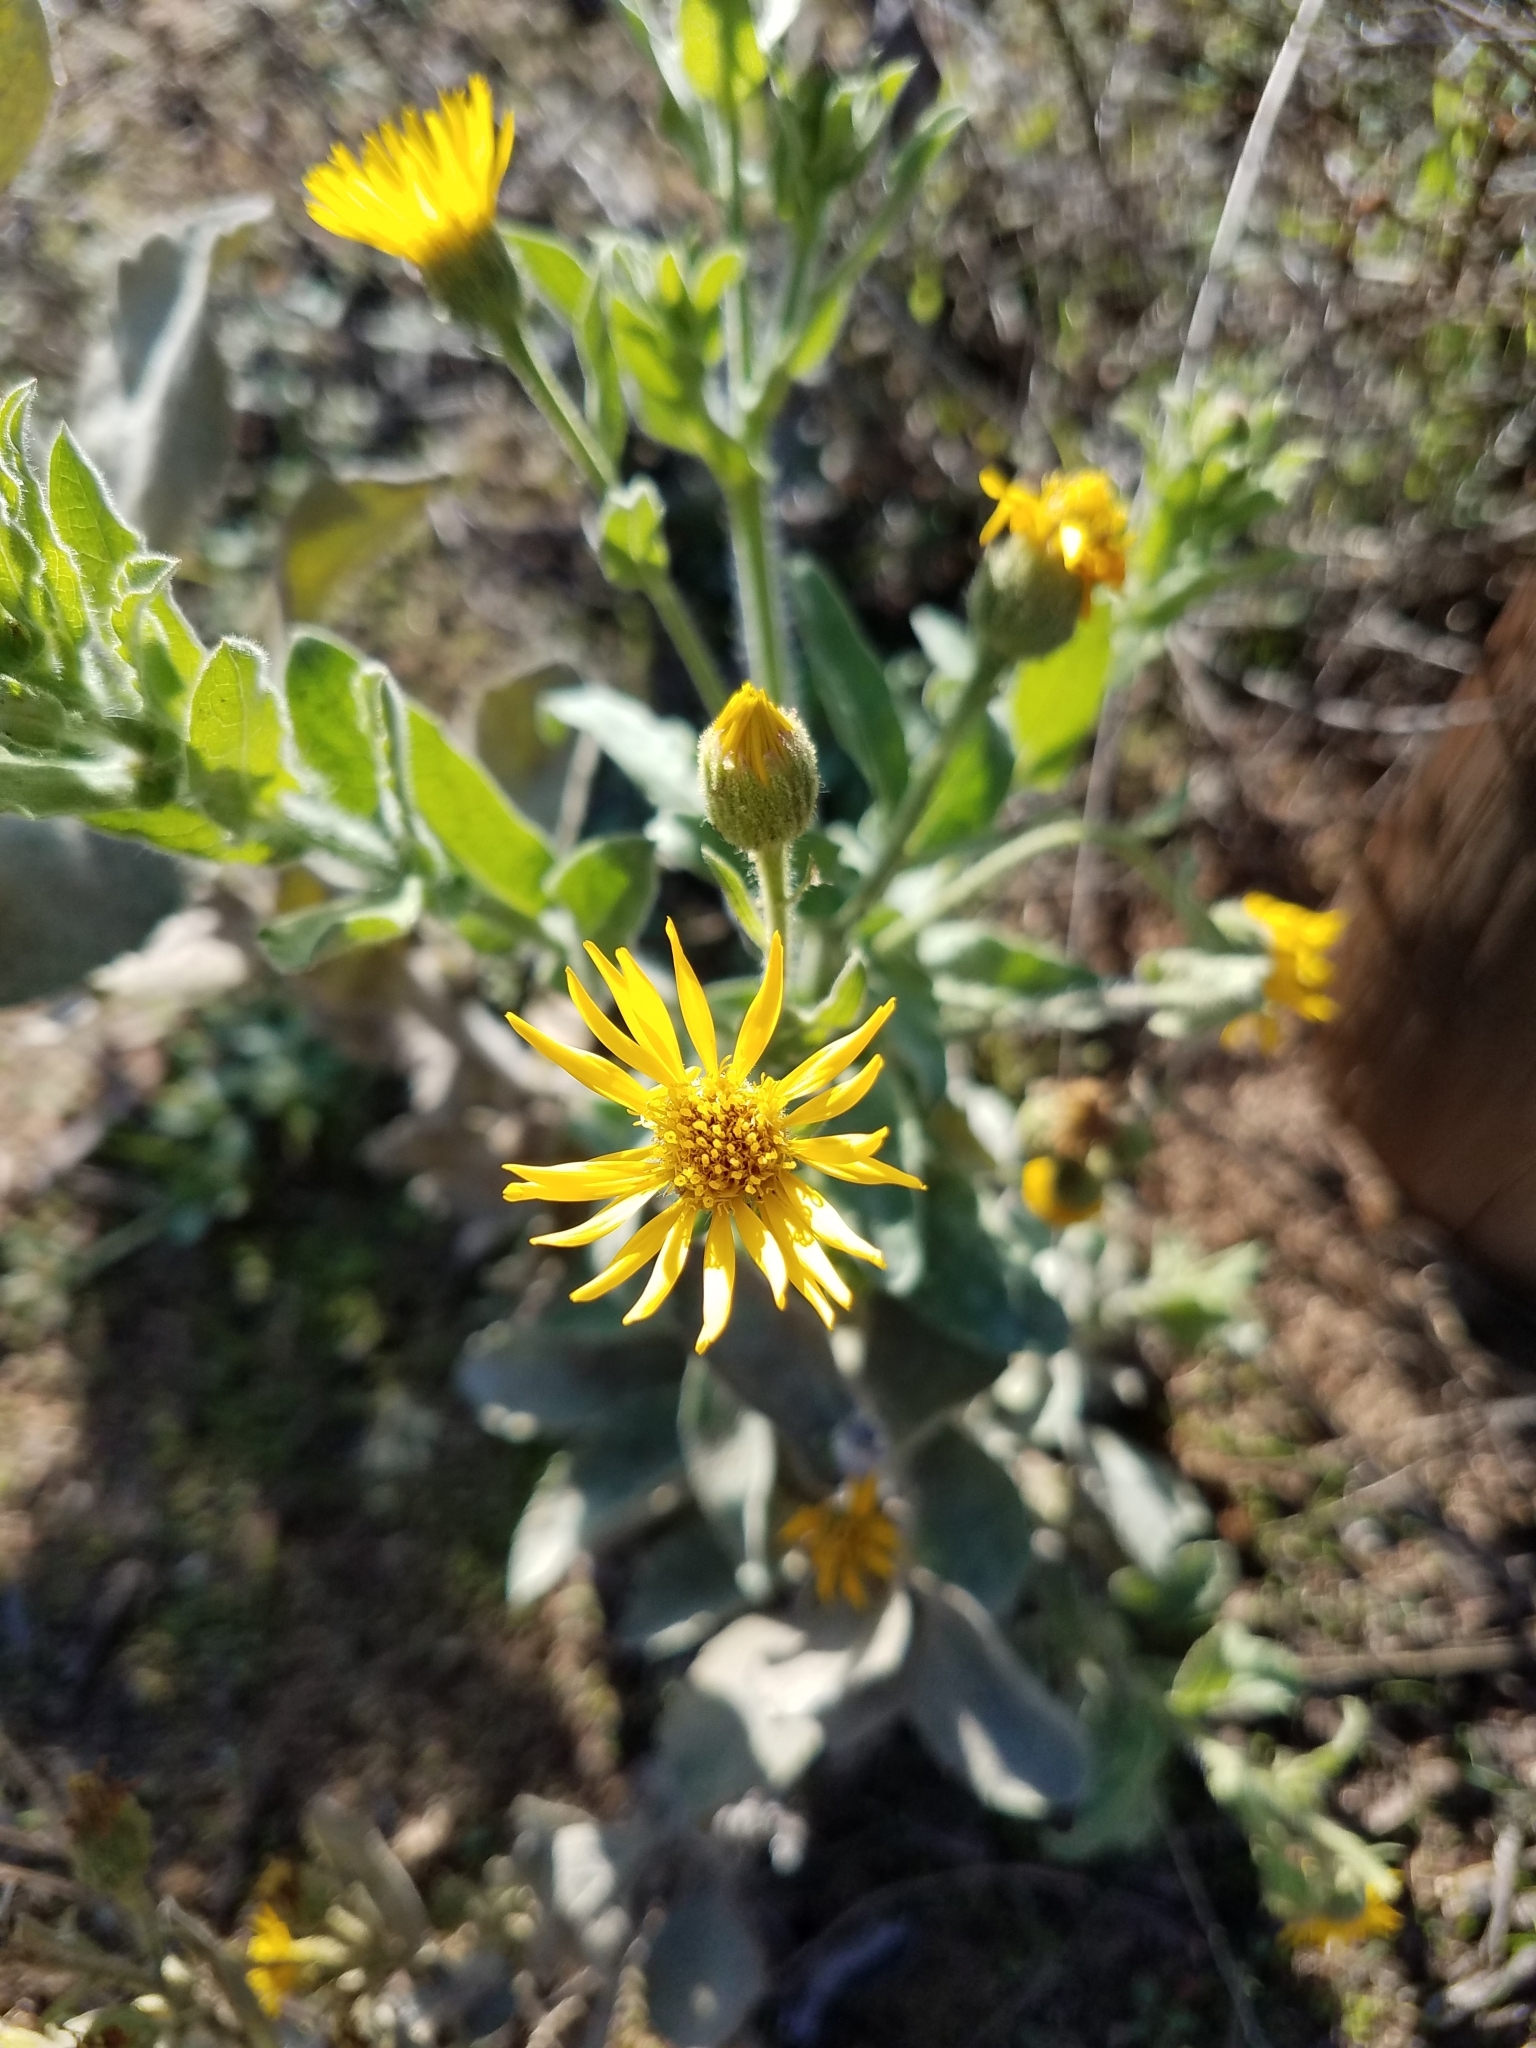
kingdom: Plantae
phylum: Tracheophyta
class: Magnoliopsida
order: Asterales
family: Asteraceae
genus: Heterotheca
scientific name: Heterotheca grandiflora
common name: Telegraphweed
